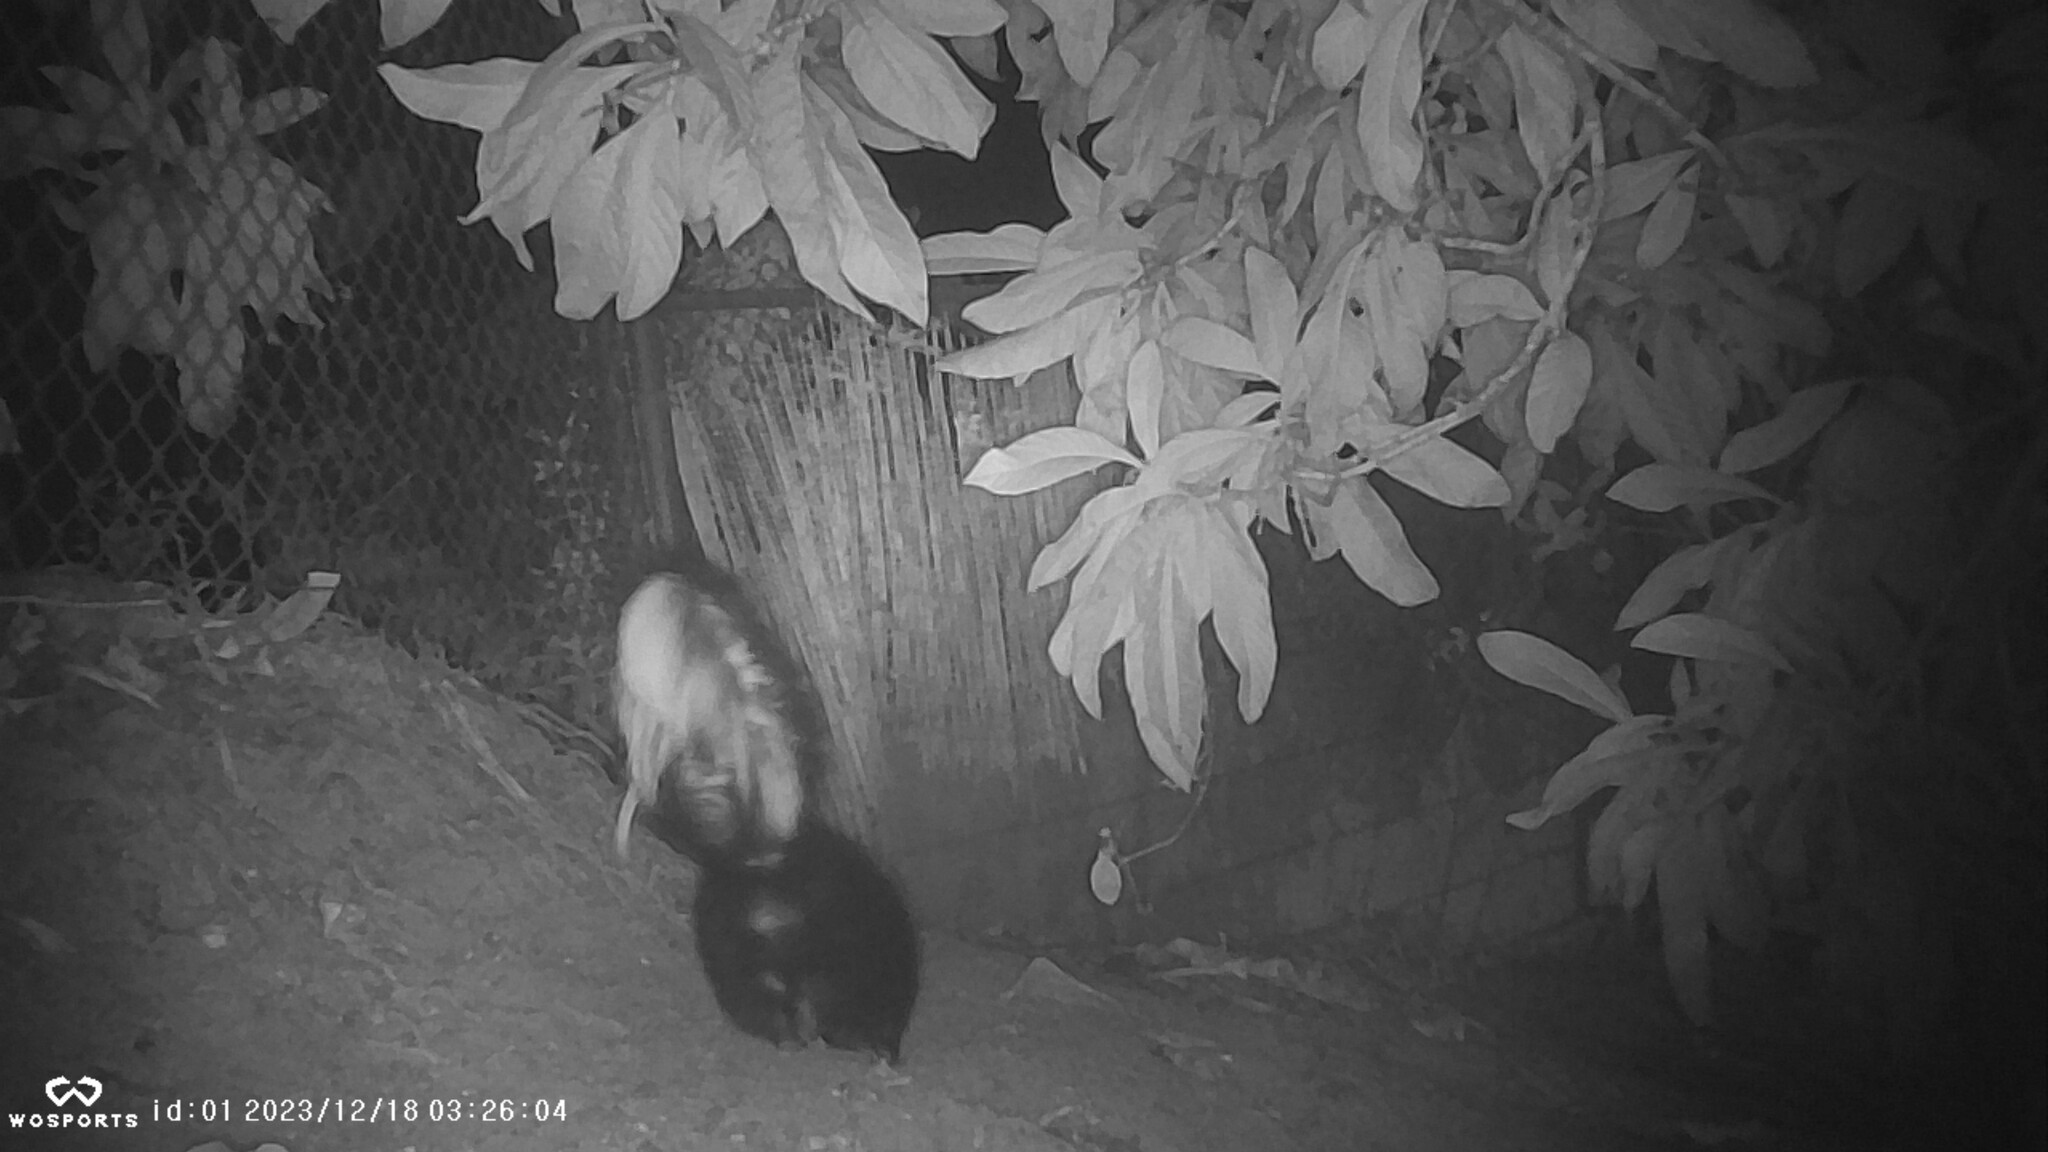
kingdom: Animalia
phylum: Chordata
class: Mammalia
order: Carnivora
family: Mephitidae
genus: Mephitis
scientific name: Mephitis mephitis
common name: Striped skunk
